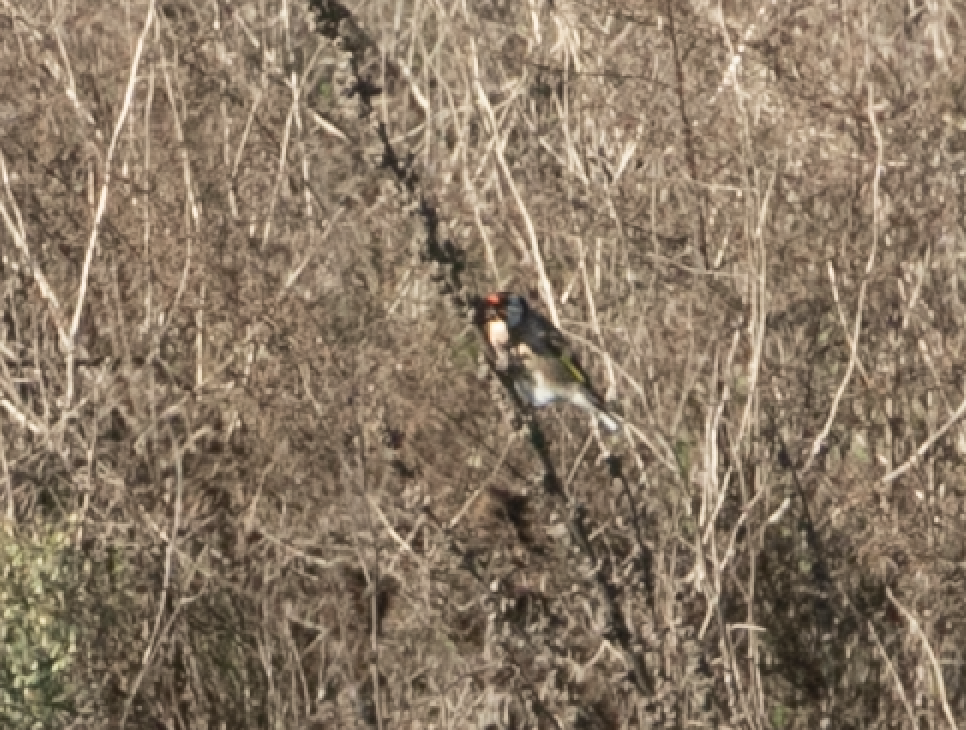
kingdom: Animalia
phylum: Chordata
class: Aves
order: Passeriformes
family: Fringillidae
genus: Carduelis
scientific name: Carduelis carduelis
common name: European goldfinch
